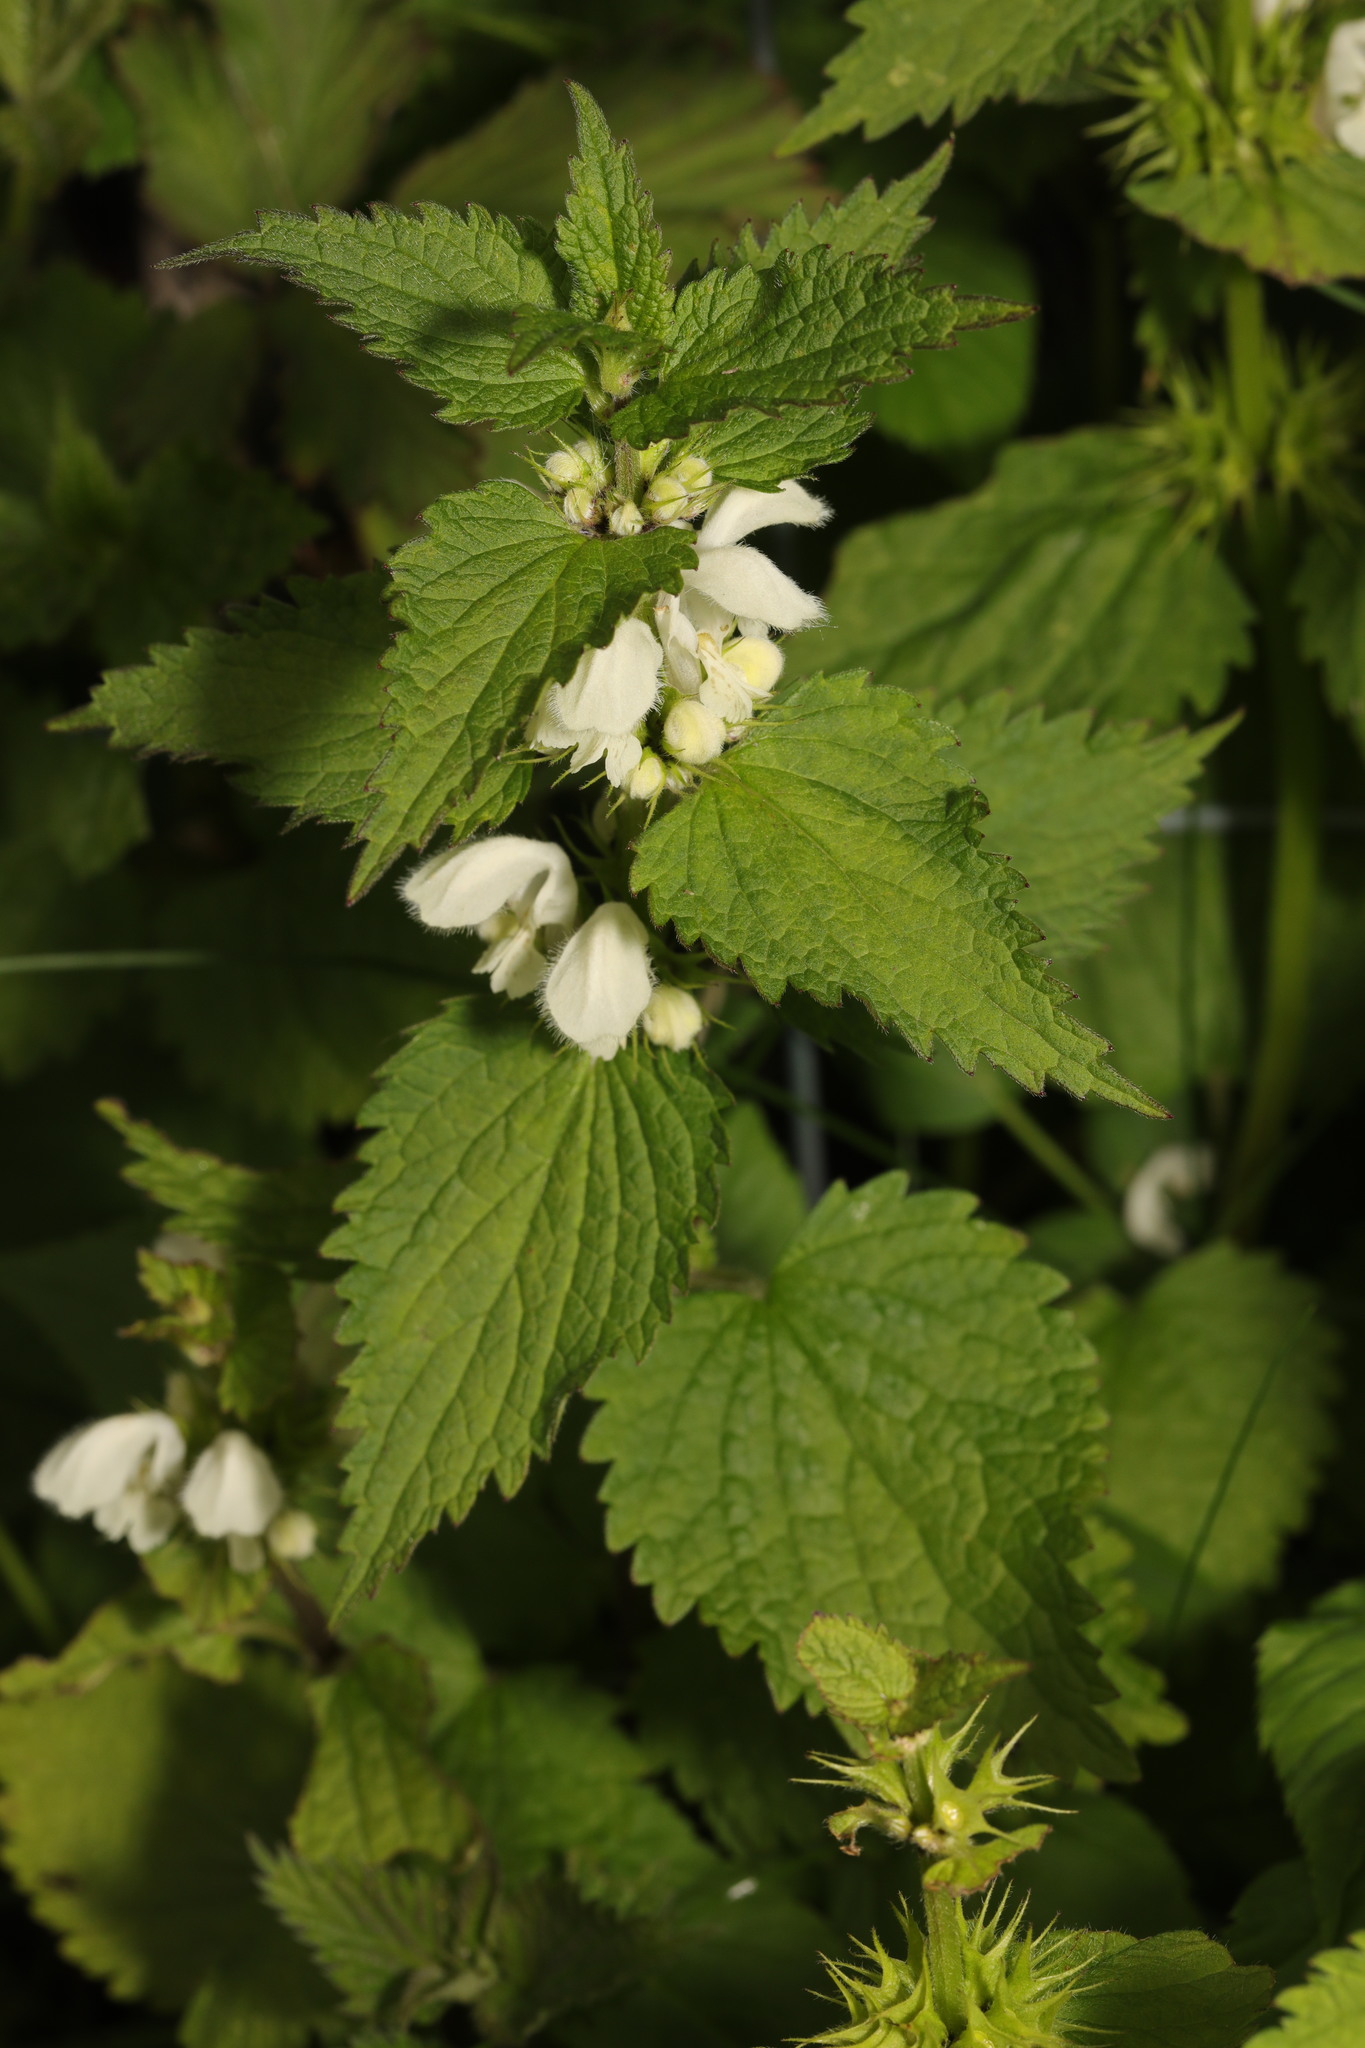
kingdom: Plantae
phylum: Tracheophyta
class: Magnoliopsida
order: Lamiales
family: Lamiaceae
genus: Lamium
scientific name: Lamium album
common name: White dead-nettle
